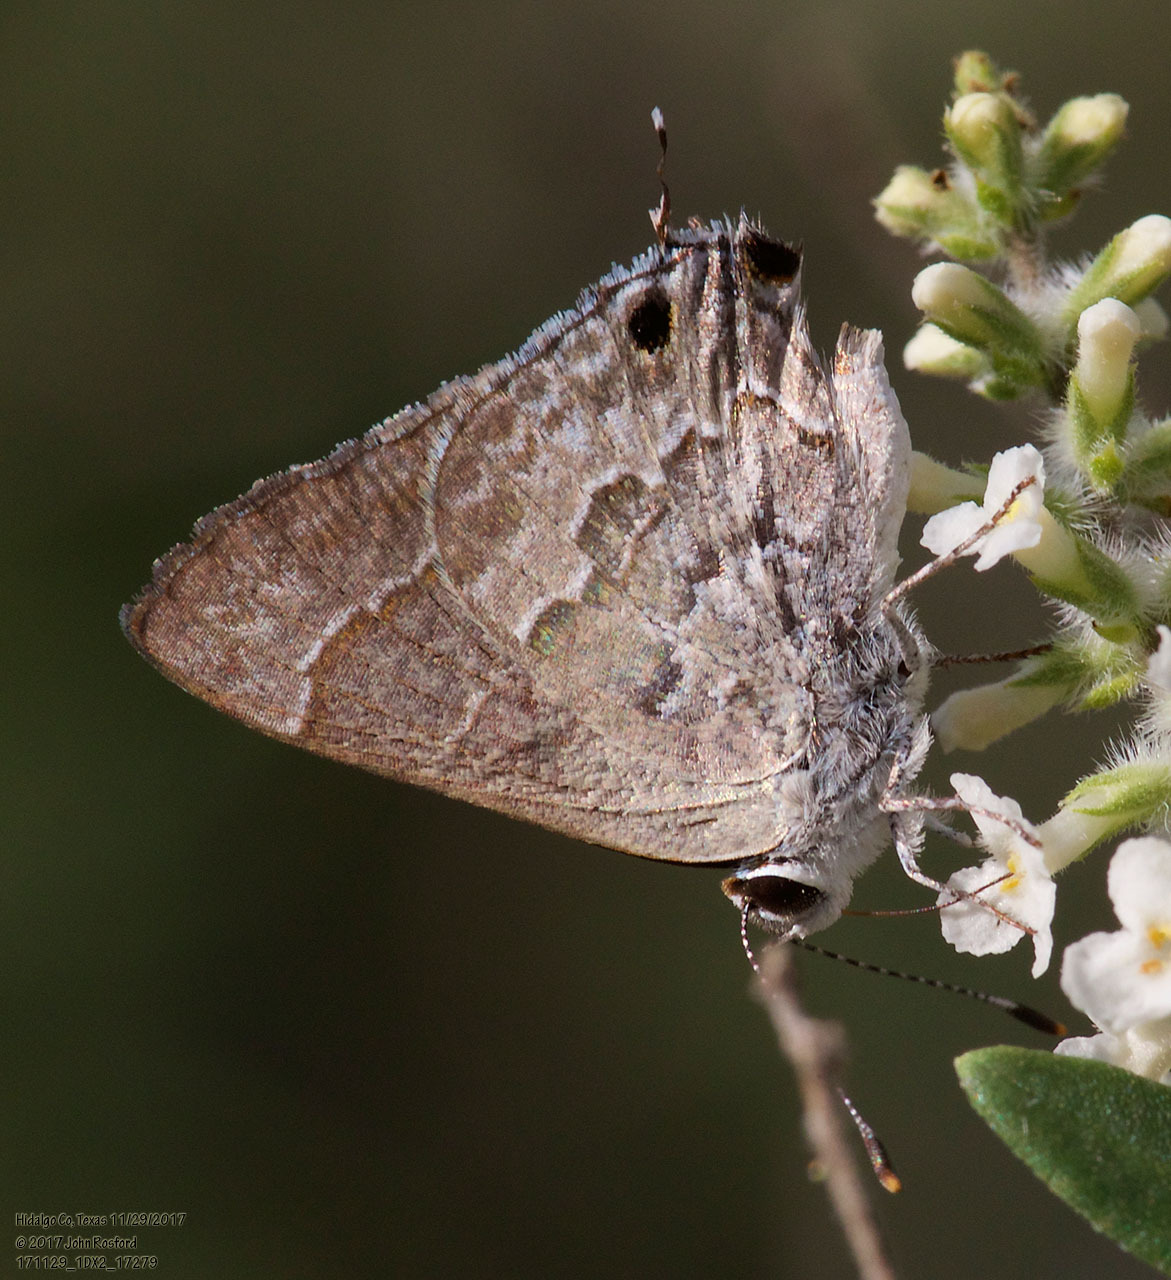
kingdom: Animalia
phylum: Arthropoda
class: Insecta
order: Lepidoptera
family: Lycaenidae
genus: Strymon
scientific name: Strymon alea
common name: Lacey's scrub-hairstreak
